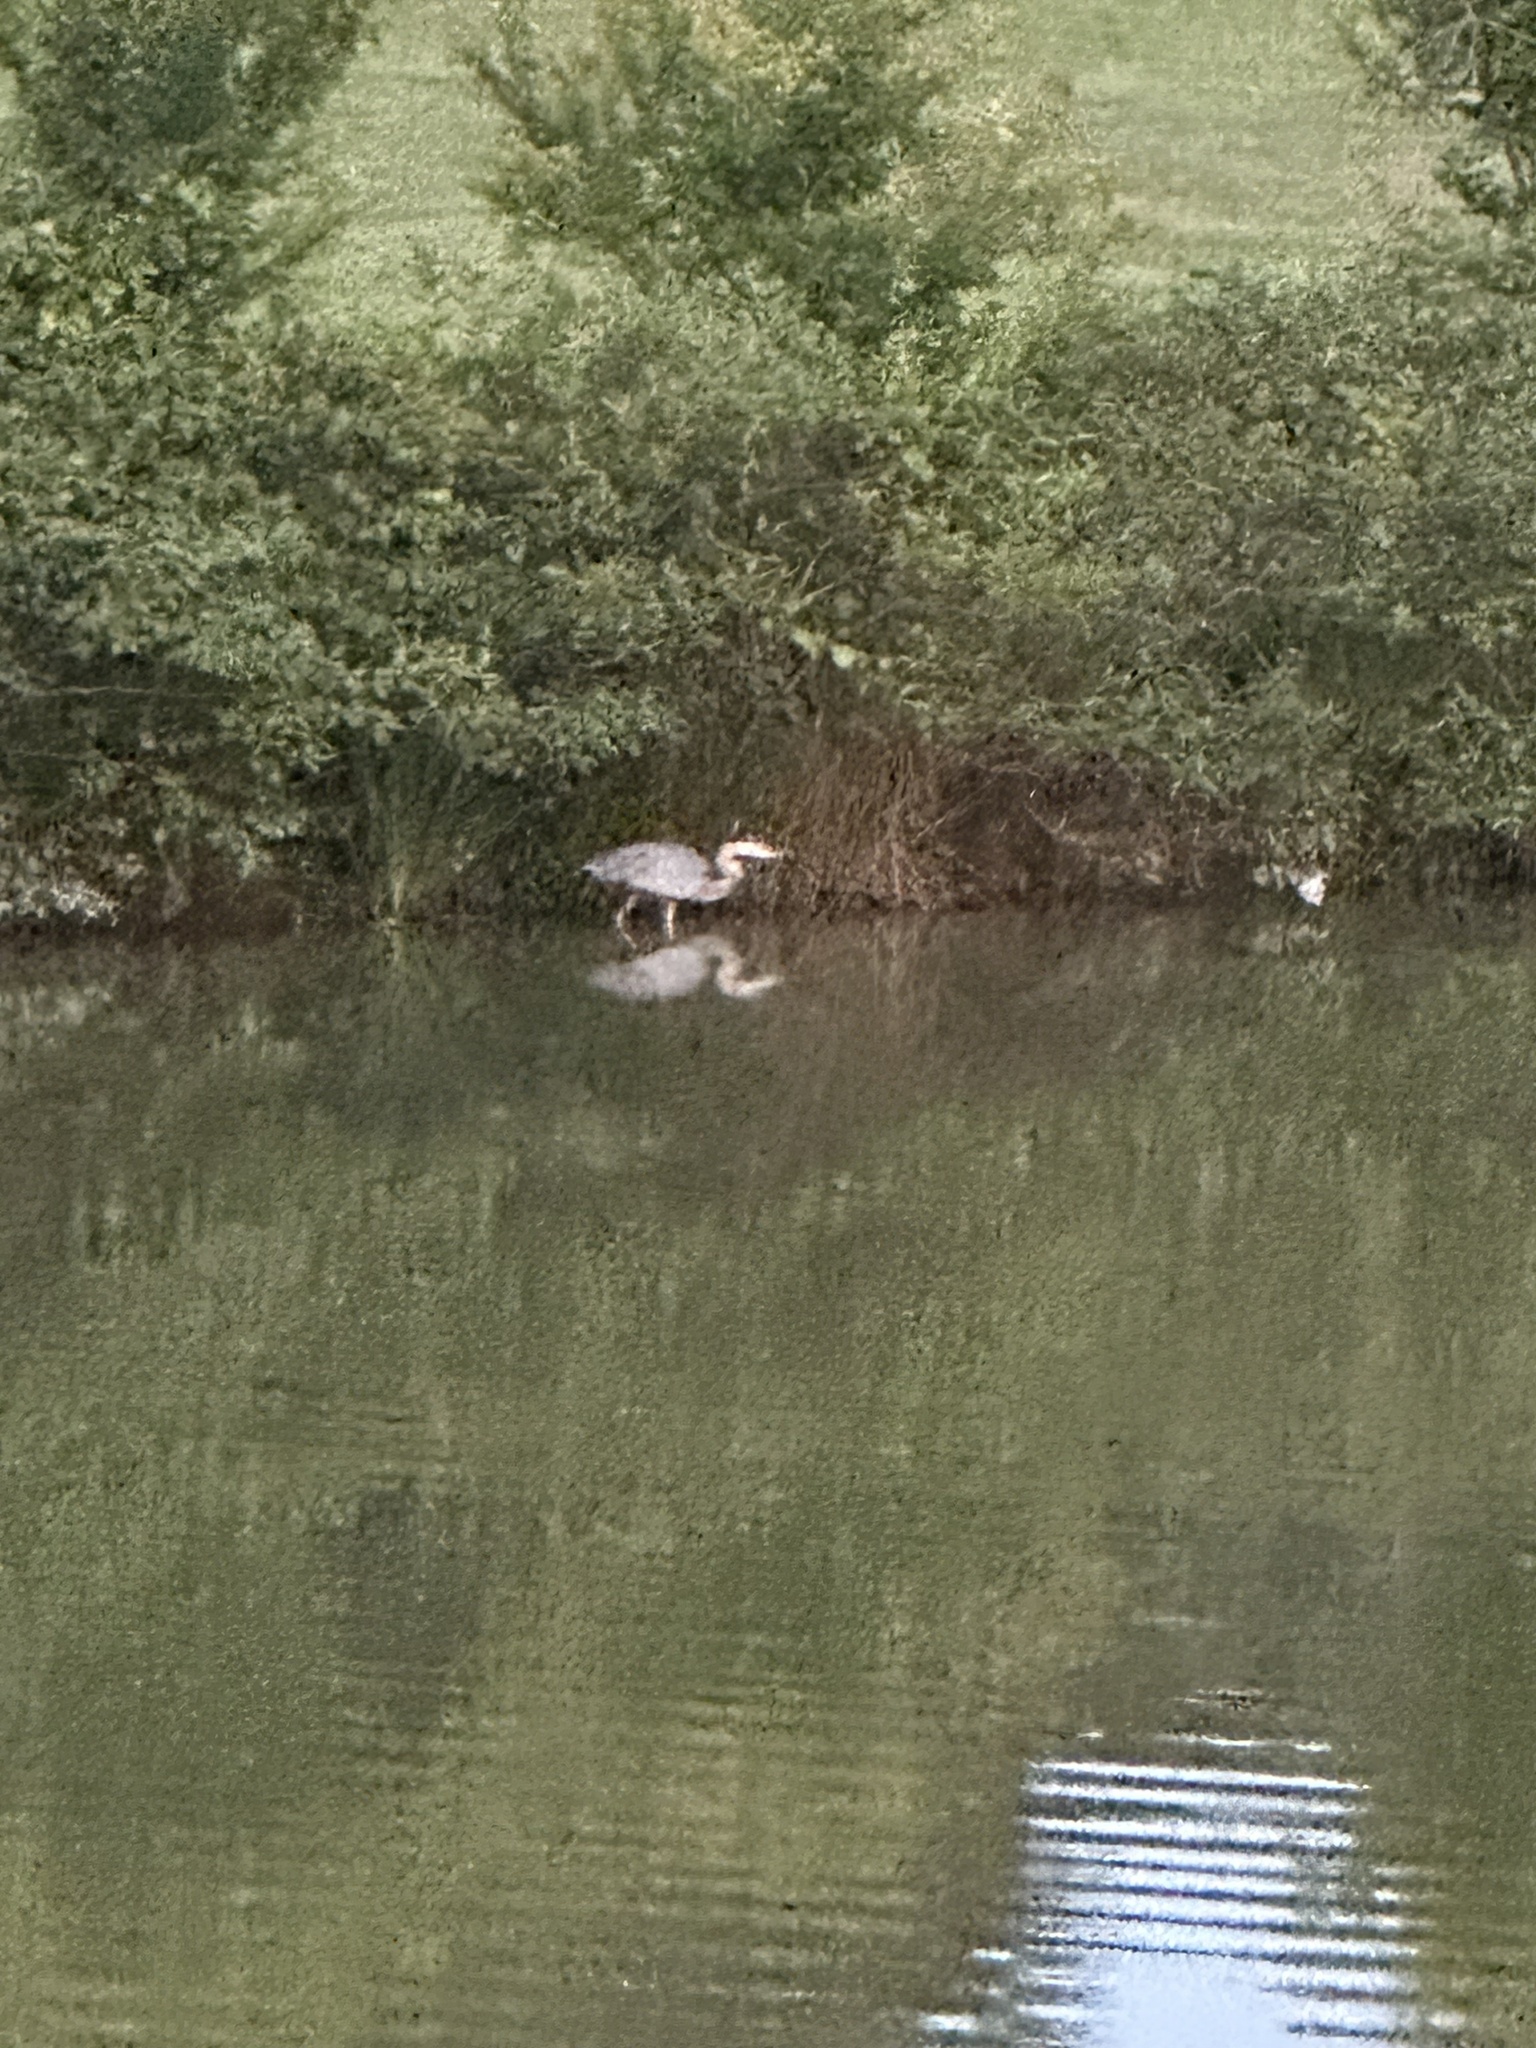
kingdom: Animalia
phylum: Chordata
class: Aves
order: Pelecaniformes
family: Ardeidae
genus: Ardea
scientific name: Ardea herodias
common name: Great blue heron
